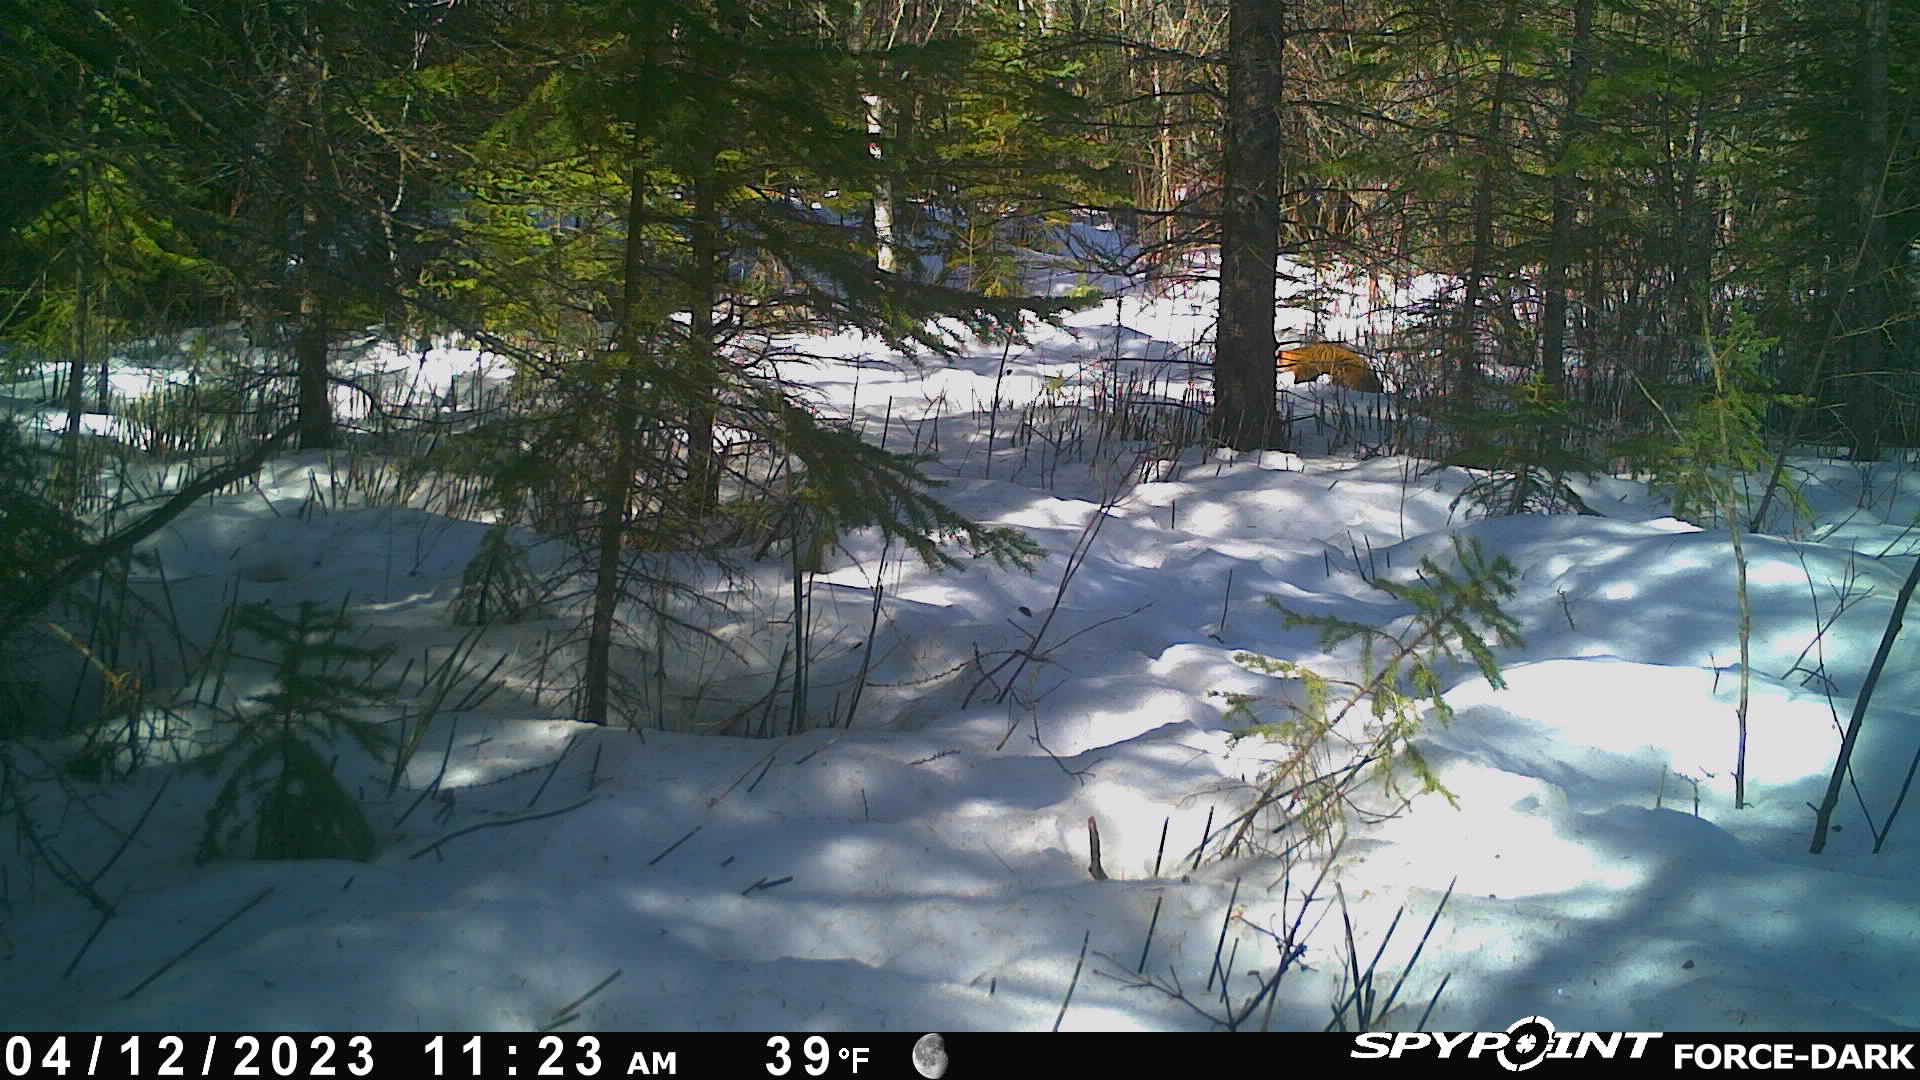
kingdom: Animalia
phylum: Chordata
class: Mammalia
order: Carnivora
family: Mustelidae
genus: Martes
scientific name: Martes americana
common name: American marten
